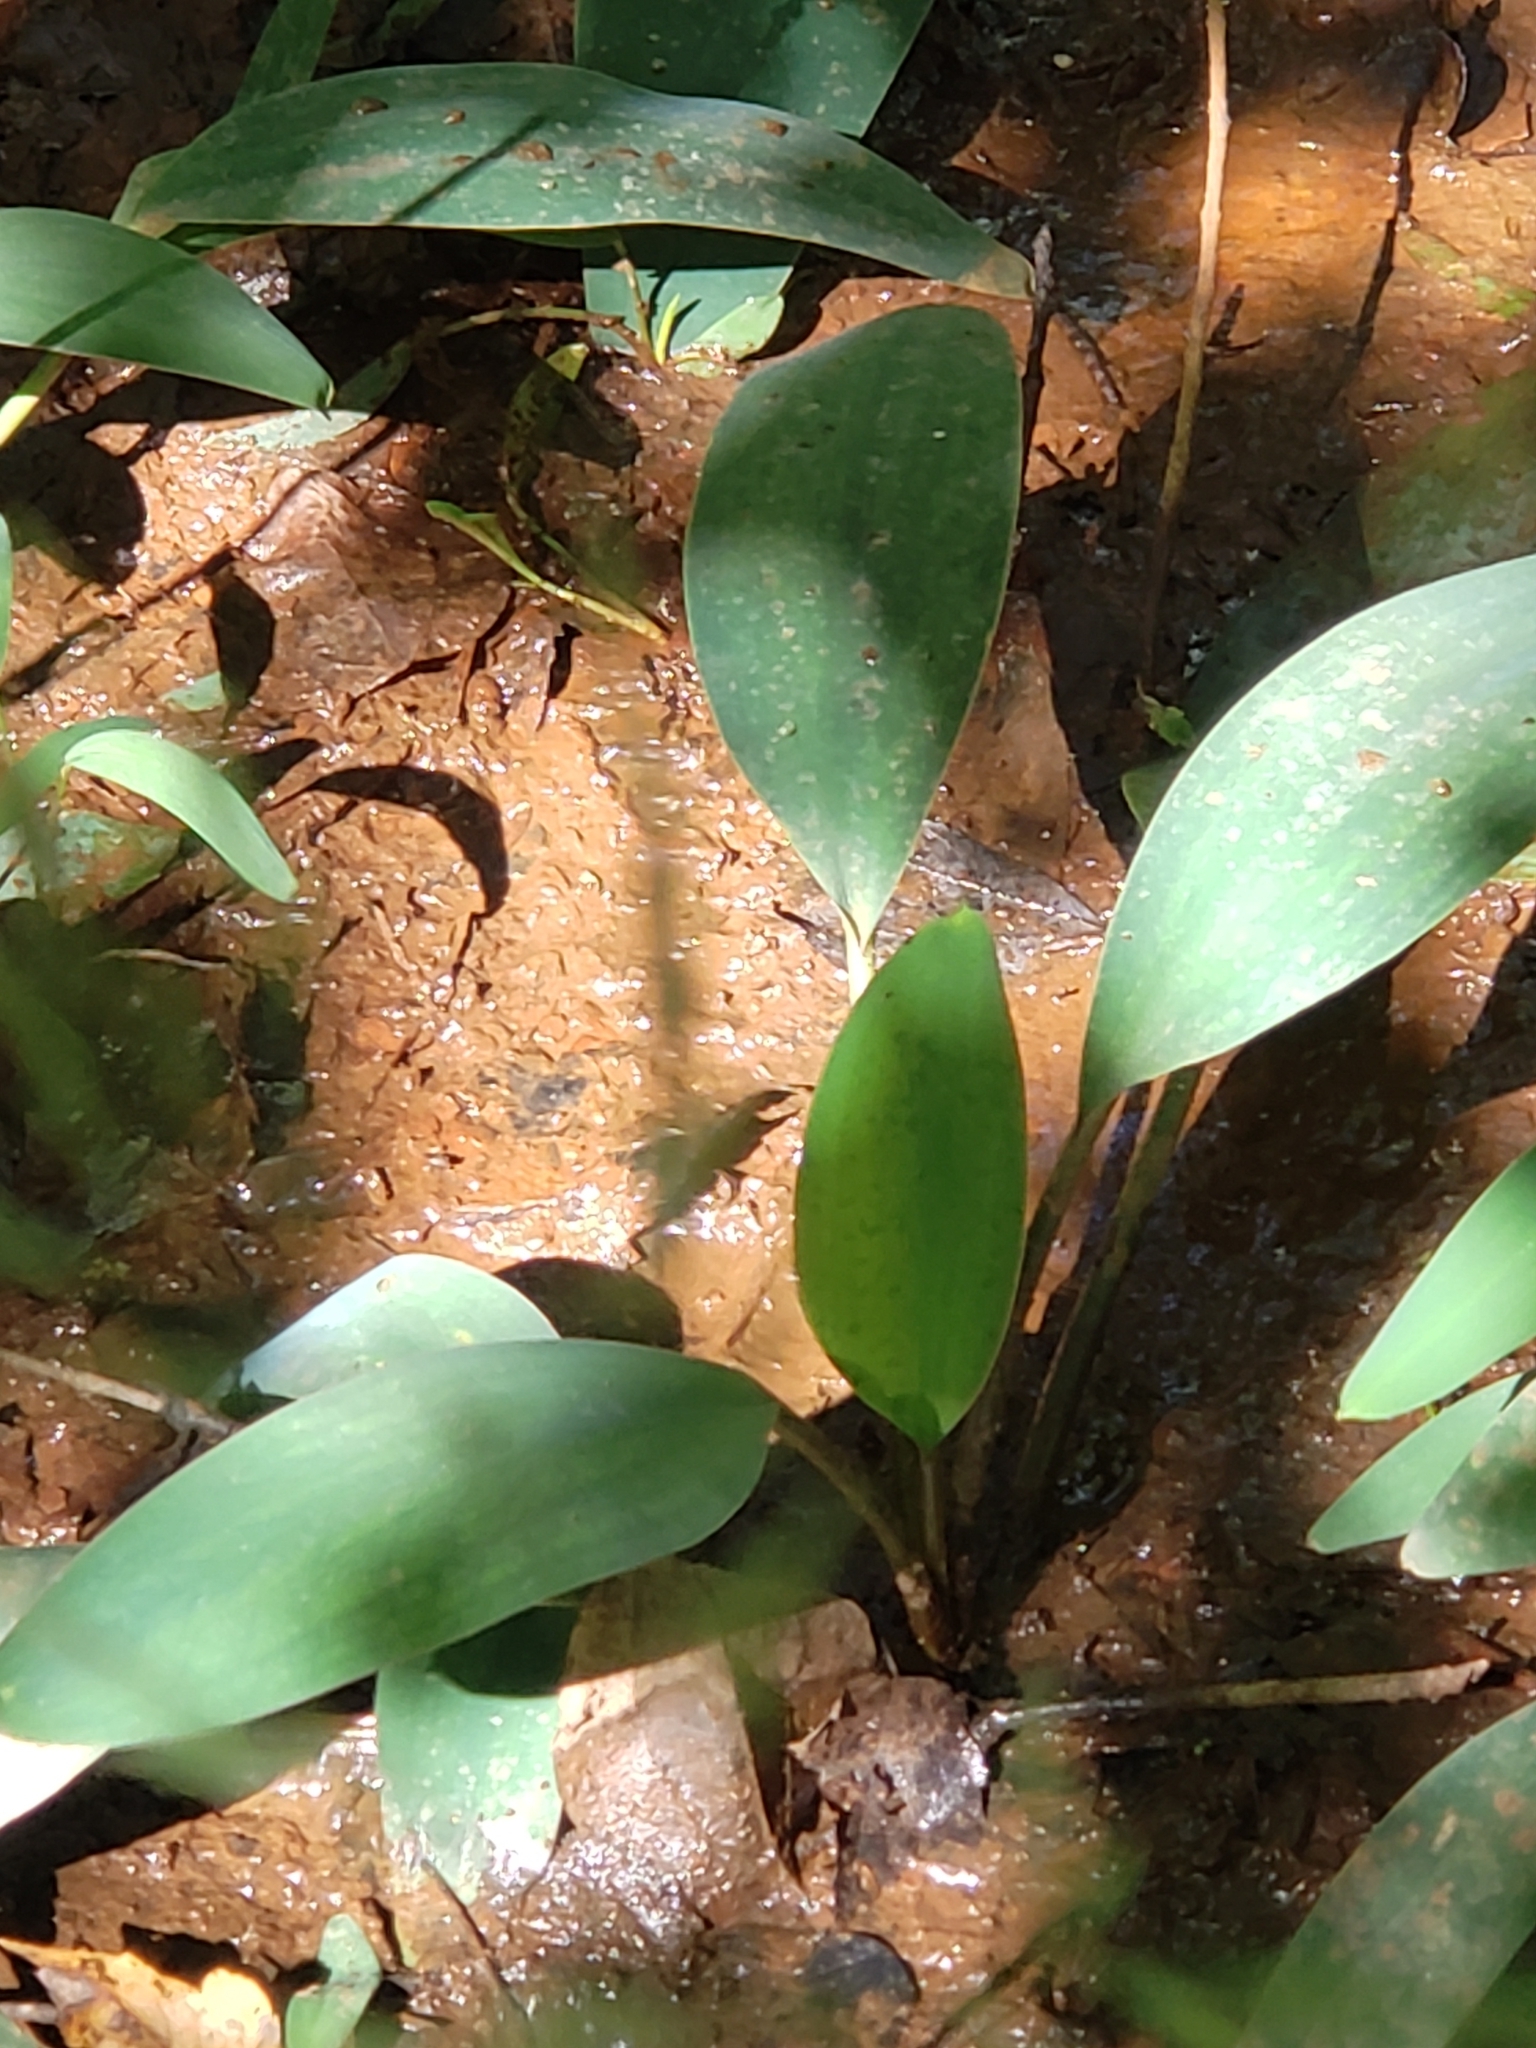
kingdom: Plantae
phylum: Tracheophyta
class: Liliopsida
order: Alismatales
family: Araceae
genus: Orontium
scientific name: Orontium aquaticum
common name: Golden-club
